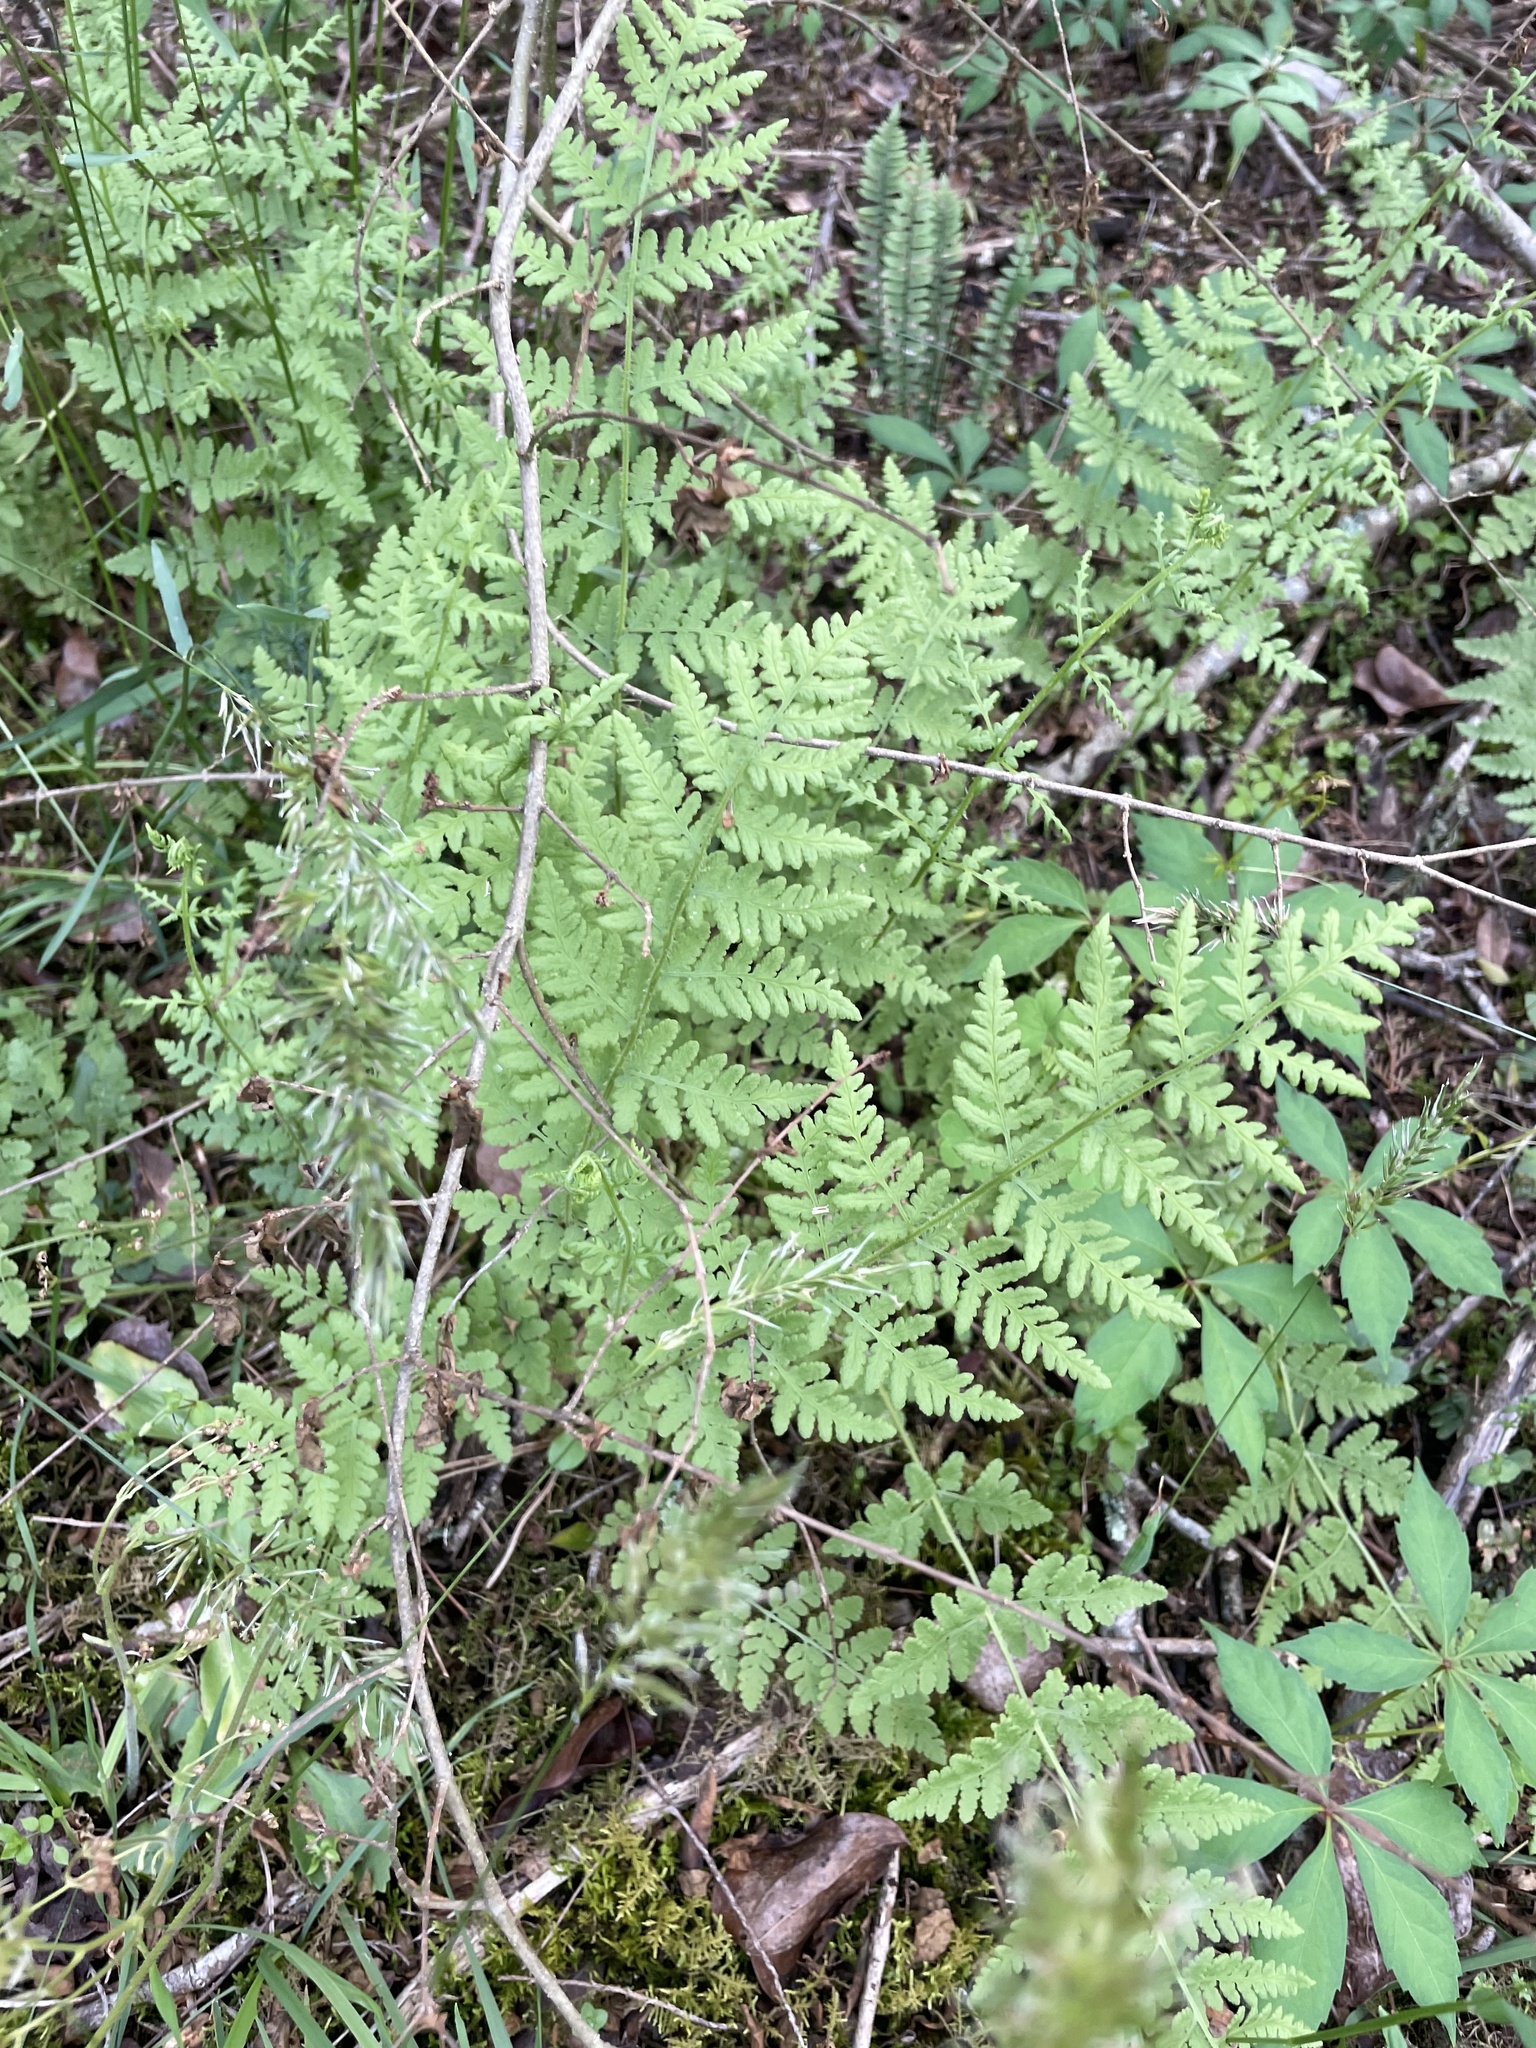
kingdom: Plantae
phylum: Tracheophyta
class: Polypodiopsida
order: Polypodiales
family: Woodsiaceae
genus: Physematium
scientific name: Physematium obtusum
